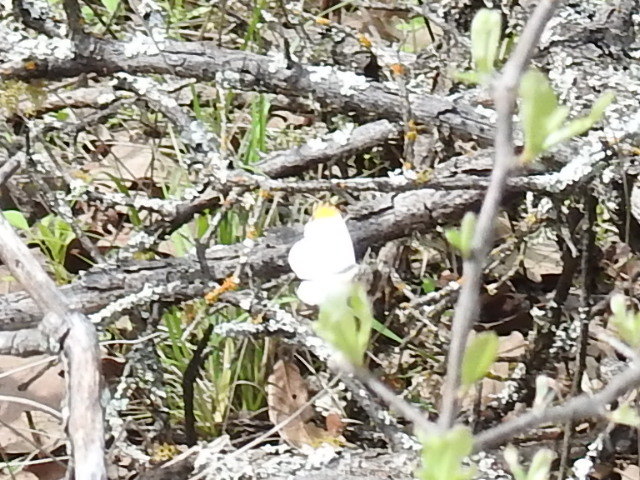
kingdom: Animalia
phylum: Arthropoda
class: Insecta
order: Lepidoptera
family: Pieridae
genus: Anthocharis
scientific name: Anthocharis midea
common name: Falcate orangetip
